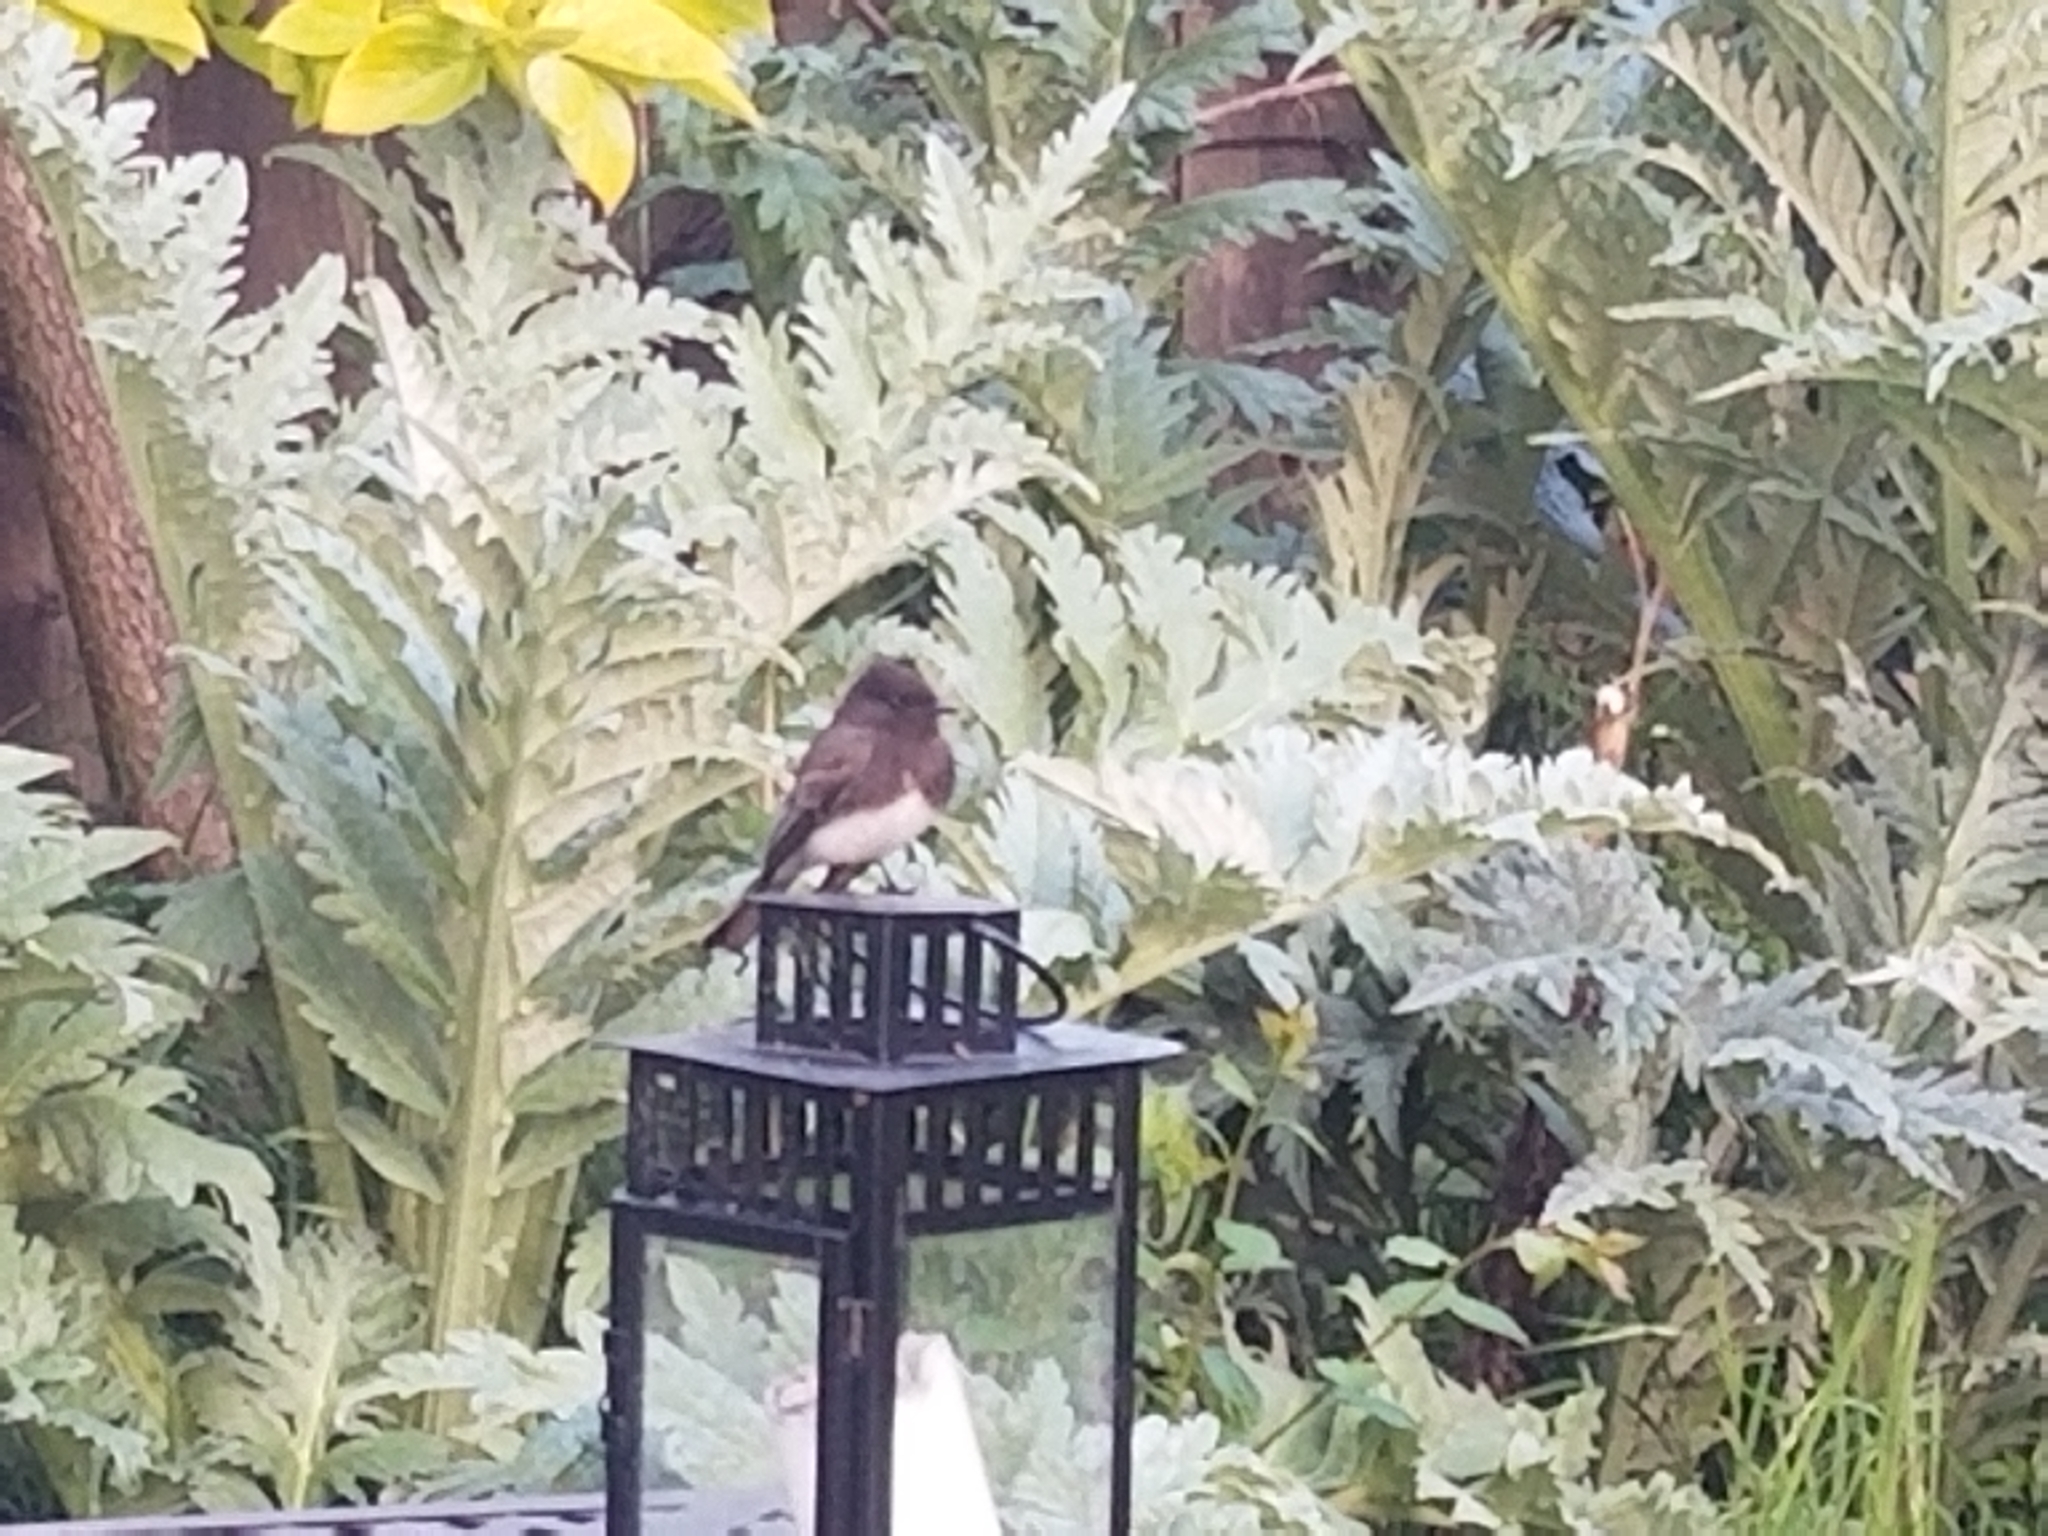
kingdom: Animalia
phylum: Chordata
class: Aves
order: Passeriformes
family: Tyrannidae
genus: Sayornis
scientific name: Sayornis nigricans
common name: Black phoebe
